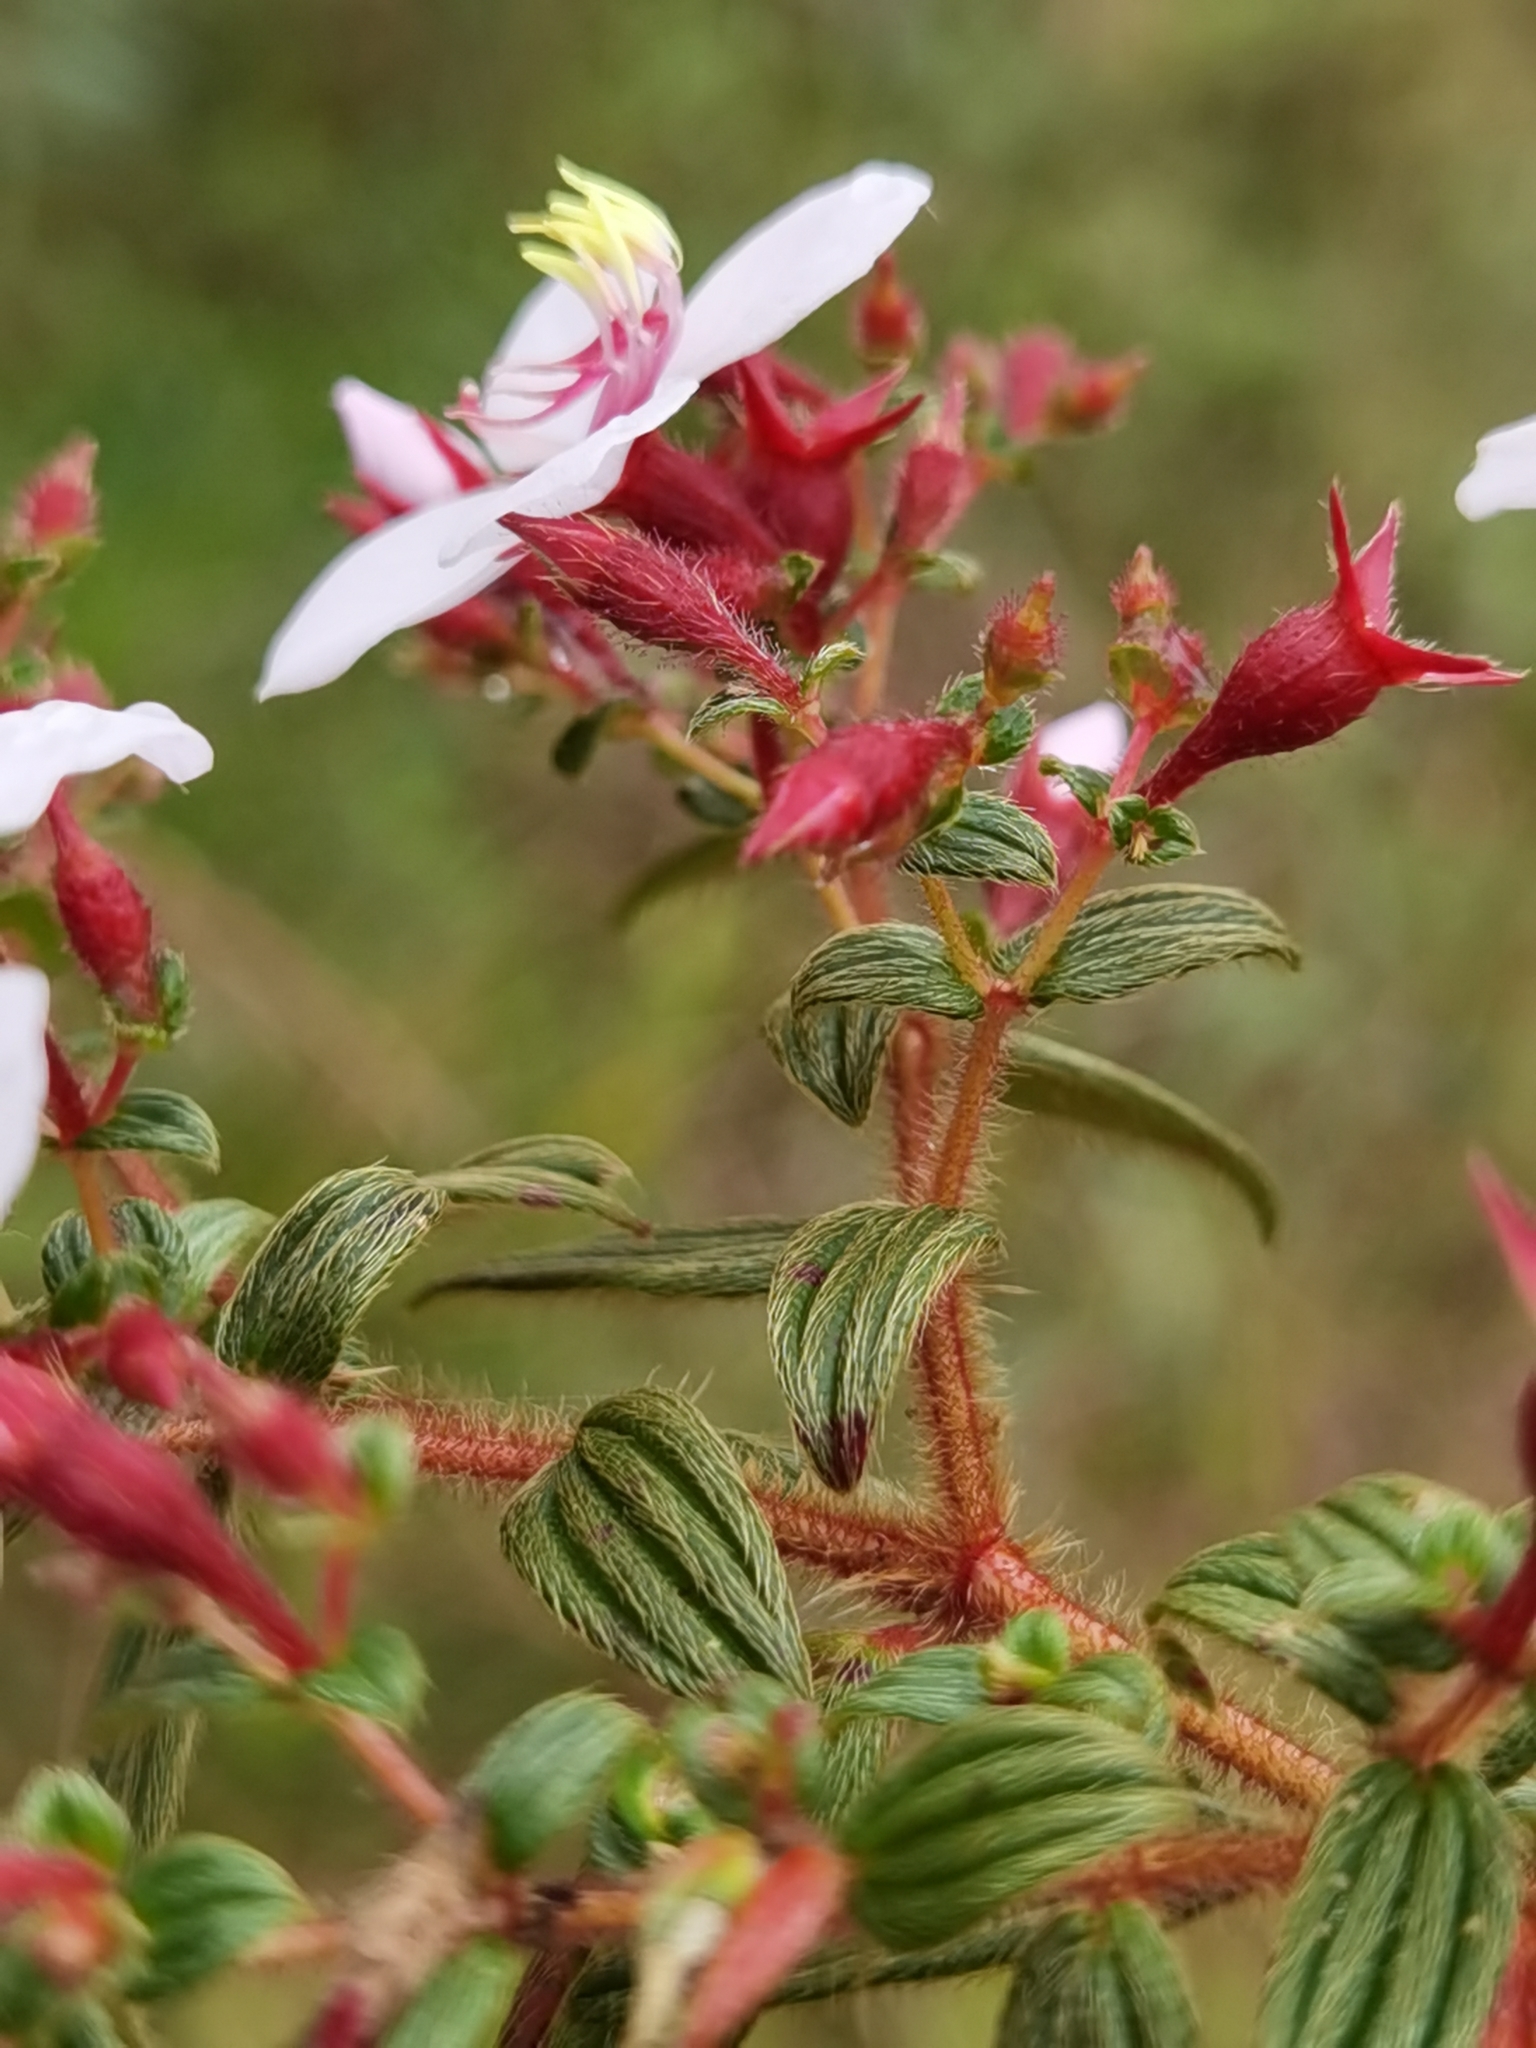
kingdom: Plantae
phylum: Tracheophyta
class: Magnoliopsida
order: Myrtales
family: Melastomataceae
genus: Monochaetum
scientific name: Monochaetum floribundum
